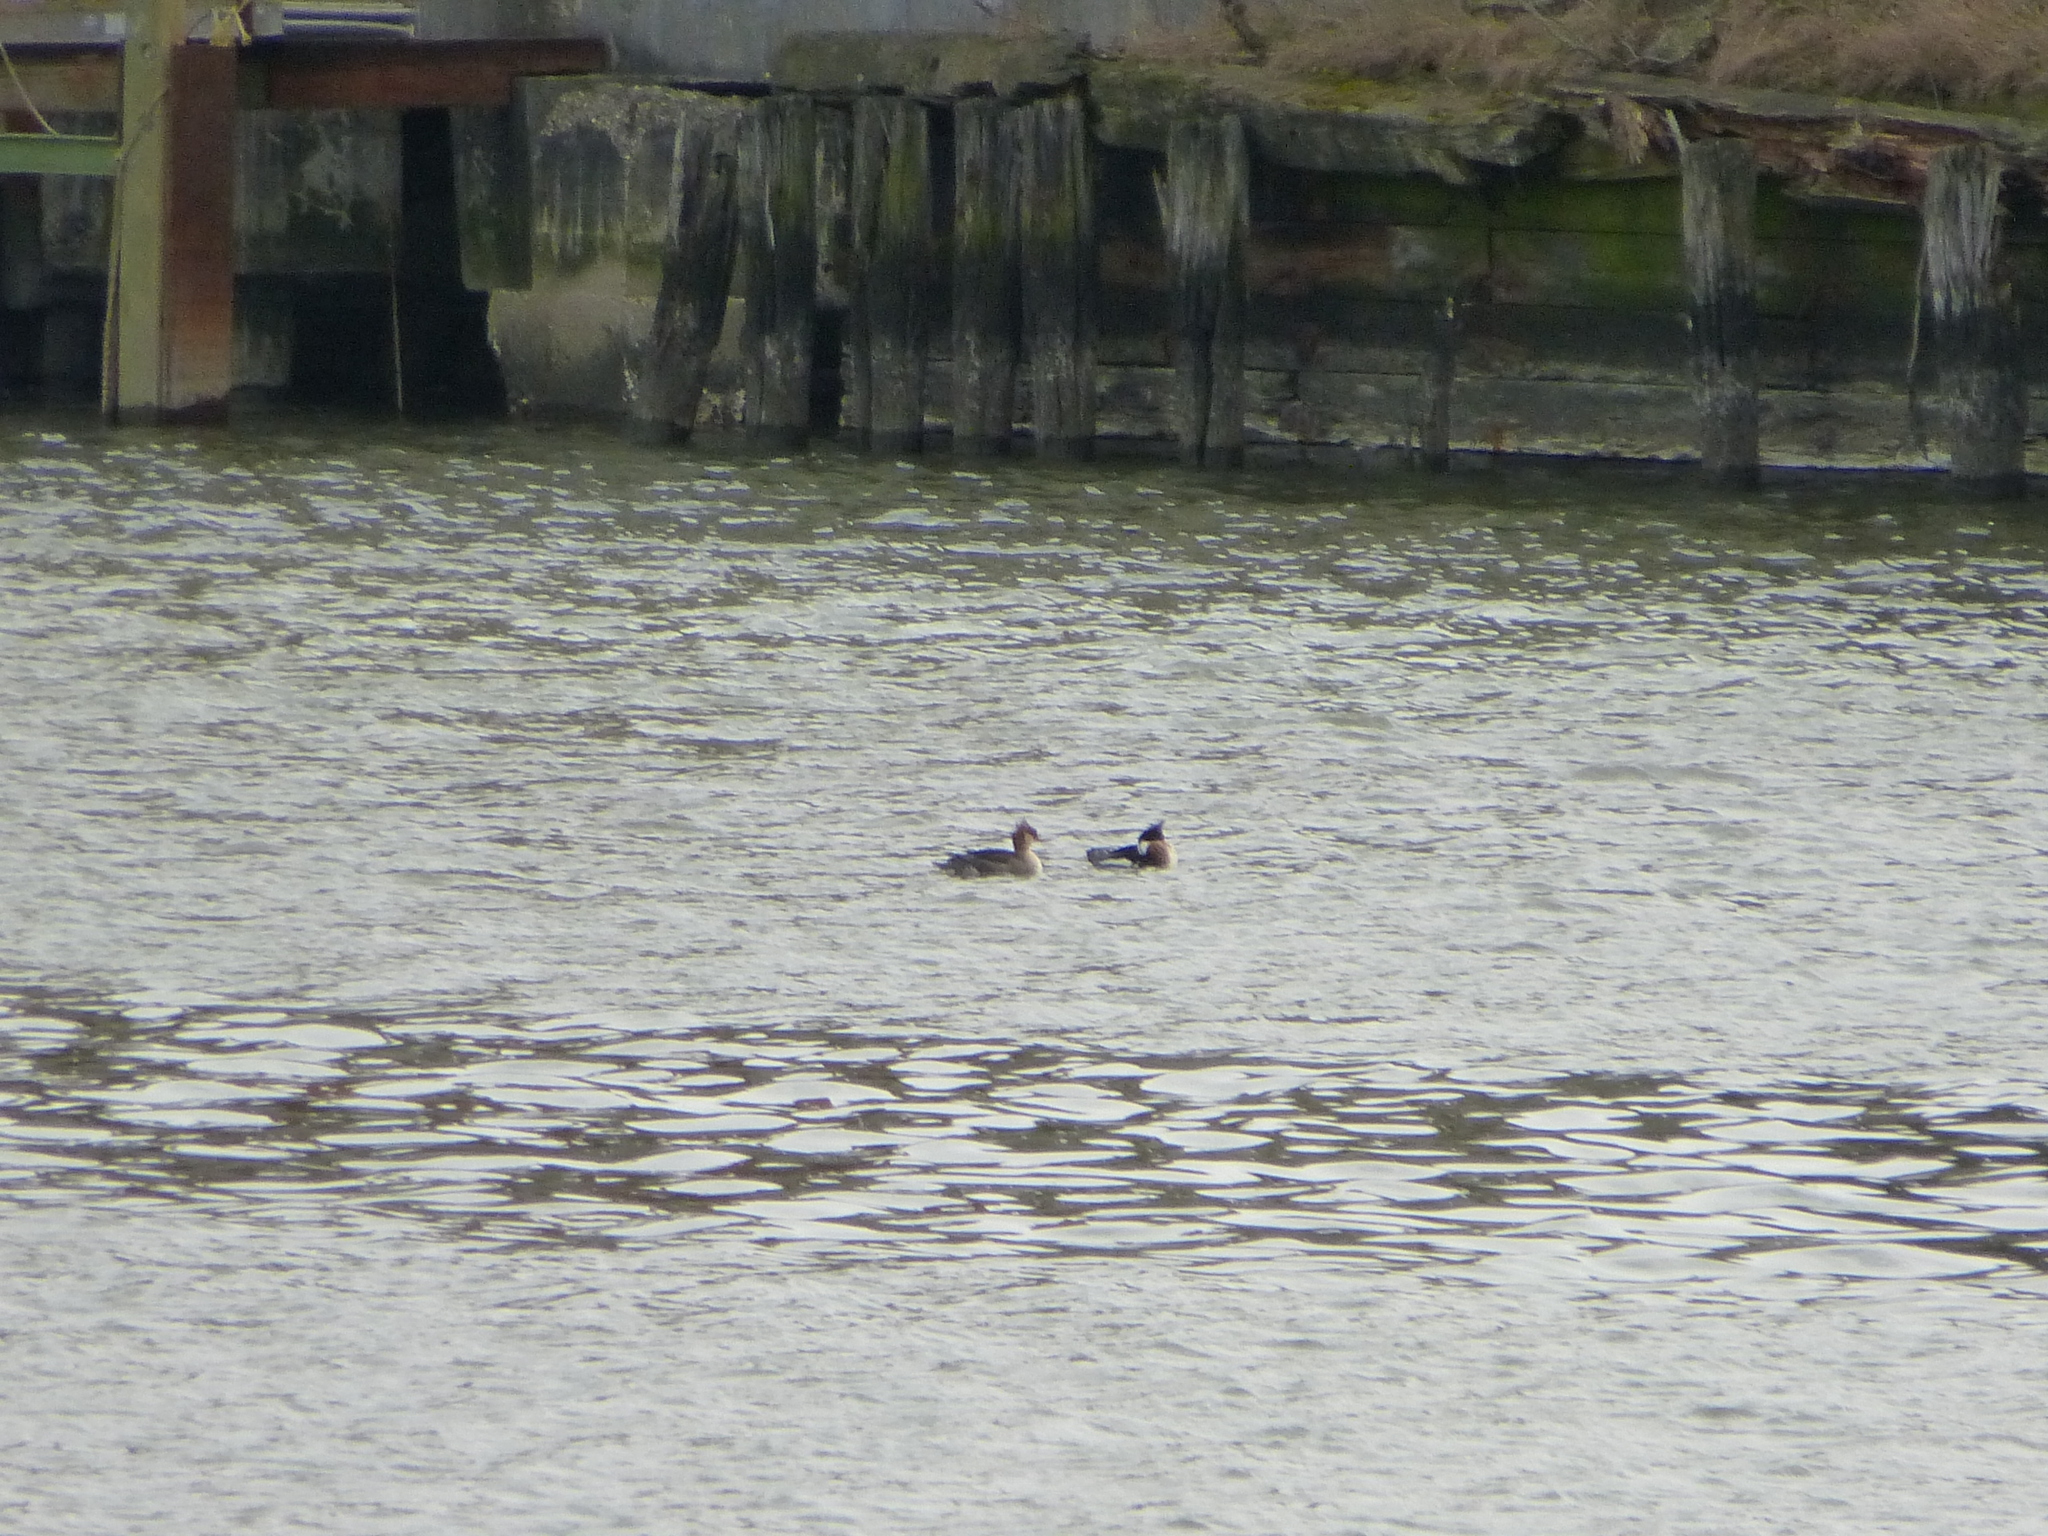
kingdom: Animalia
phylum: Chordata
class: Aves
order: Anseriformes
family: Anatidae
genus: Mergus
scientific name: Mergus serrator
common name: Red-breasted merganser
